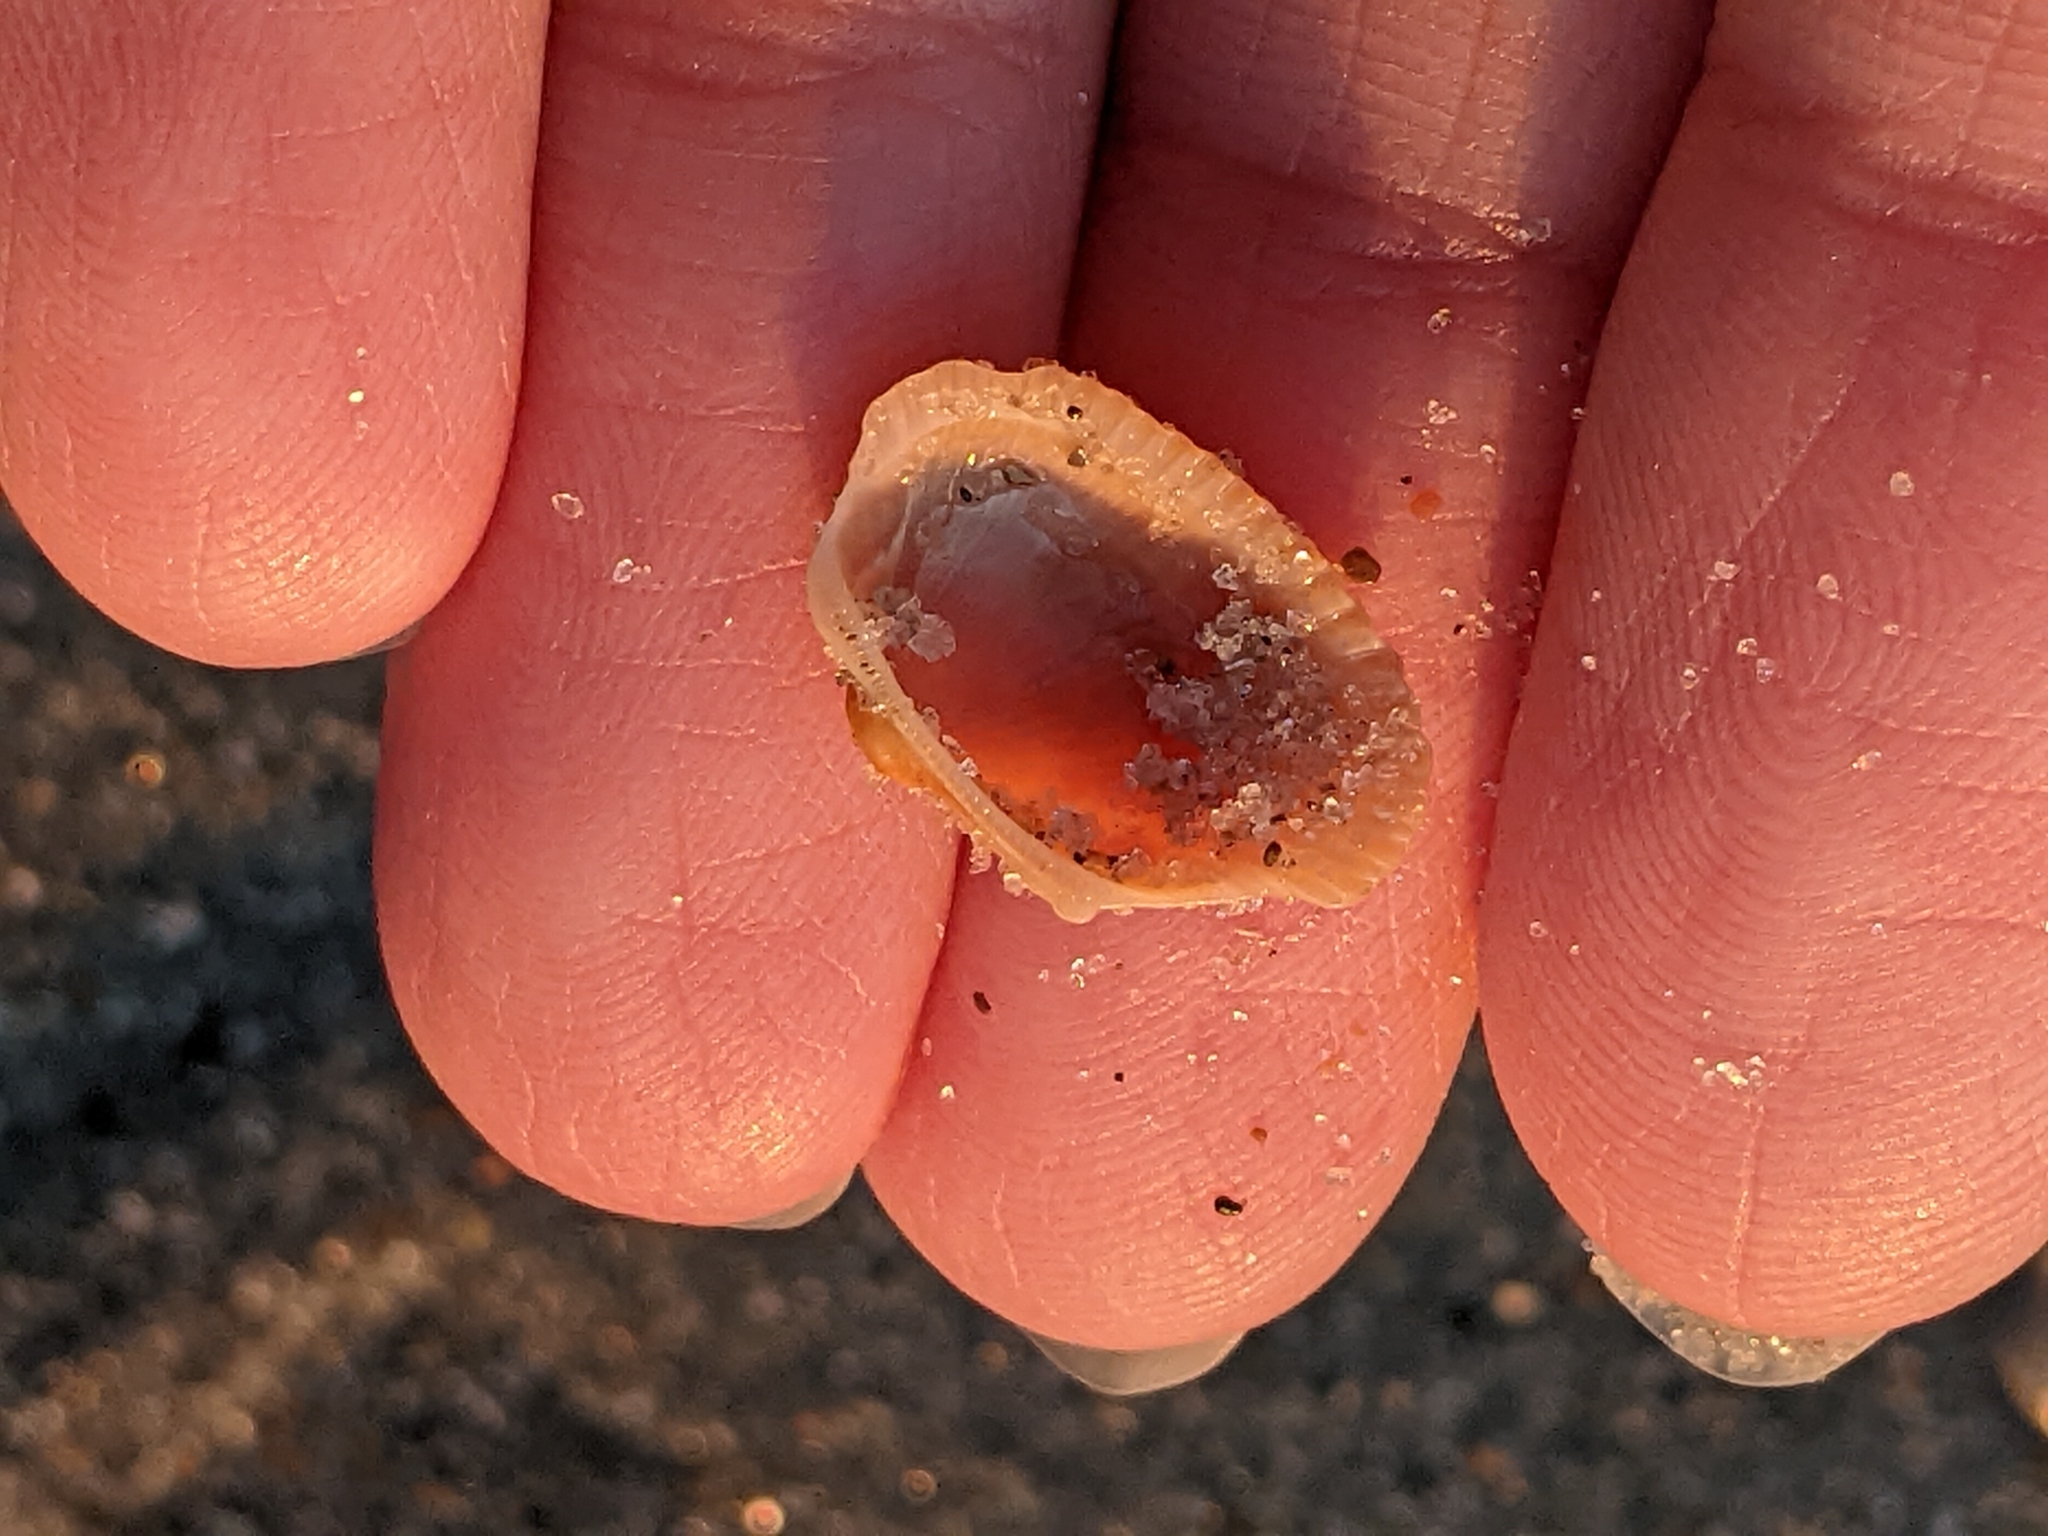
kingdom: Animalia
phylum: Mollusca
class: Bivalvia
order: Arcida
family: Arcidae
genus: Anadara
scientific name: Anadara transversa
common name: Transverse ark
